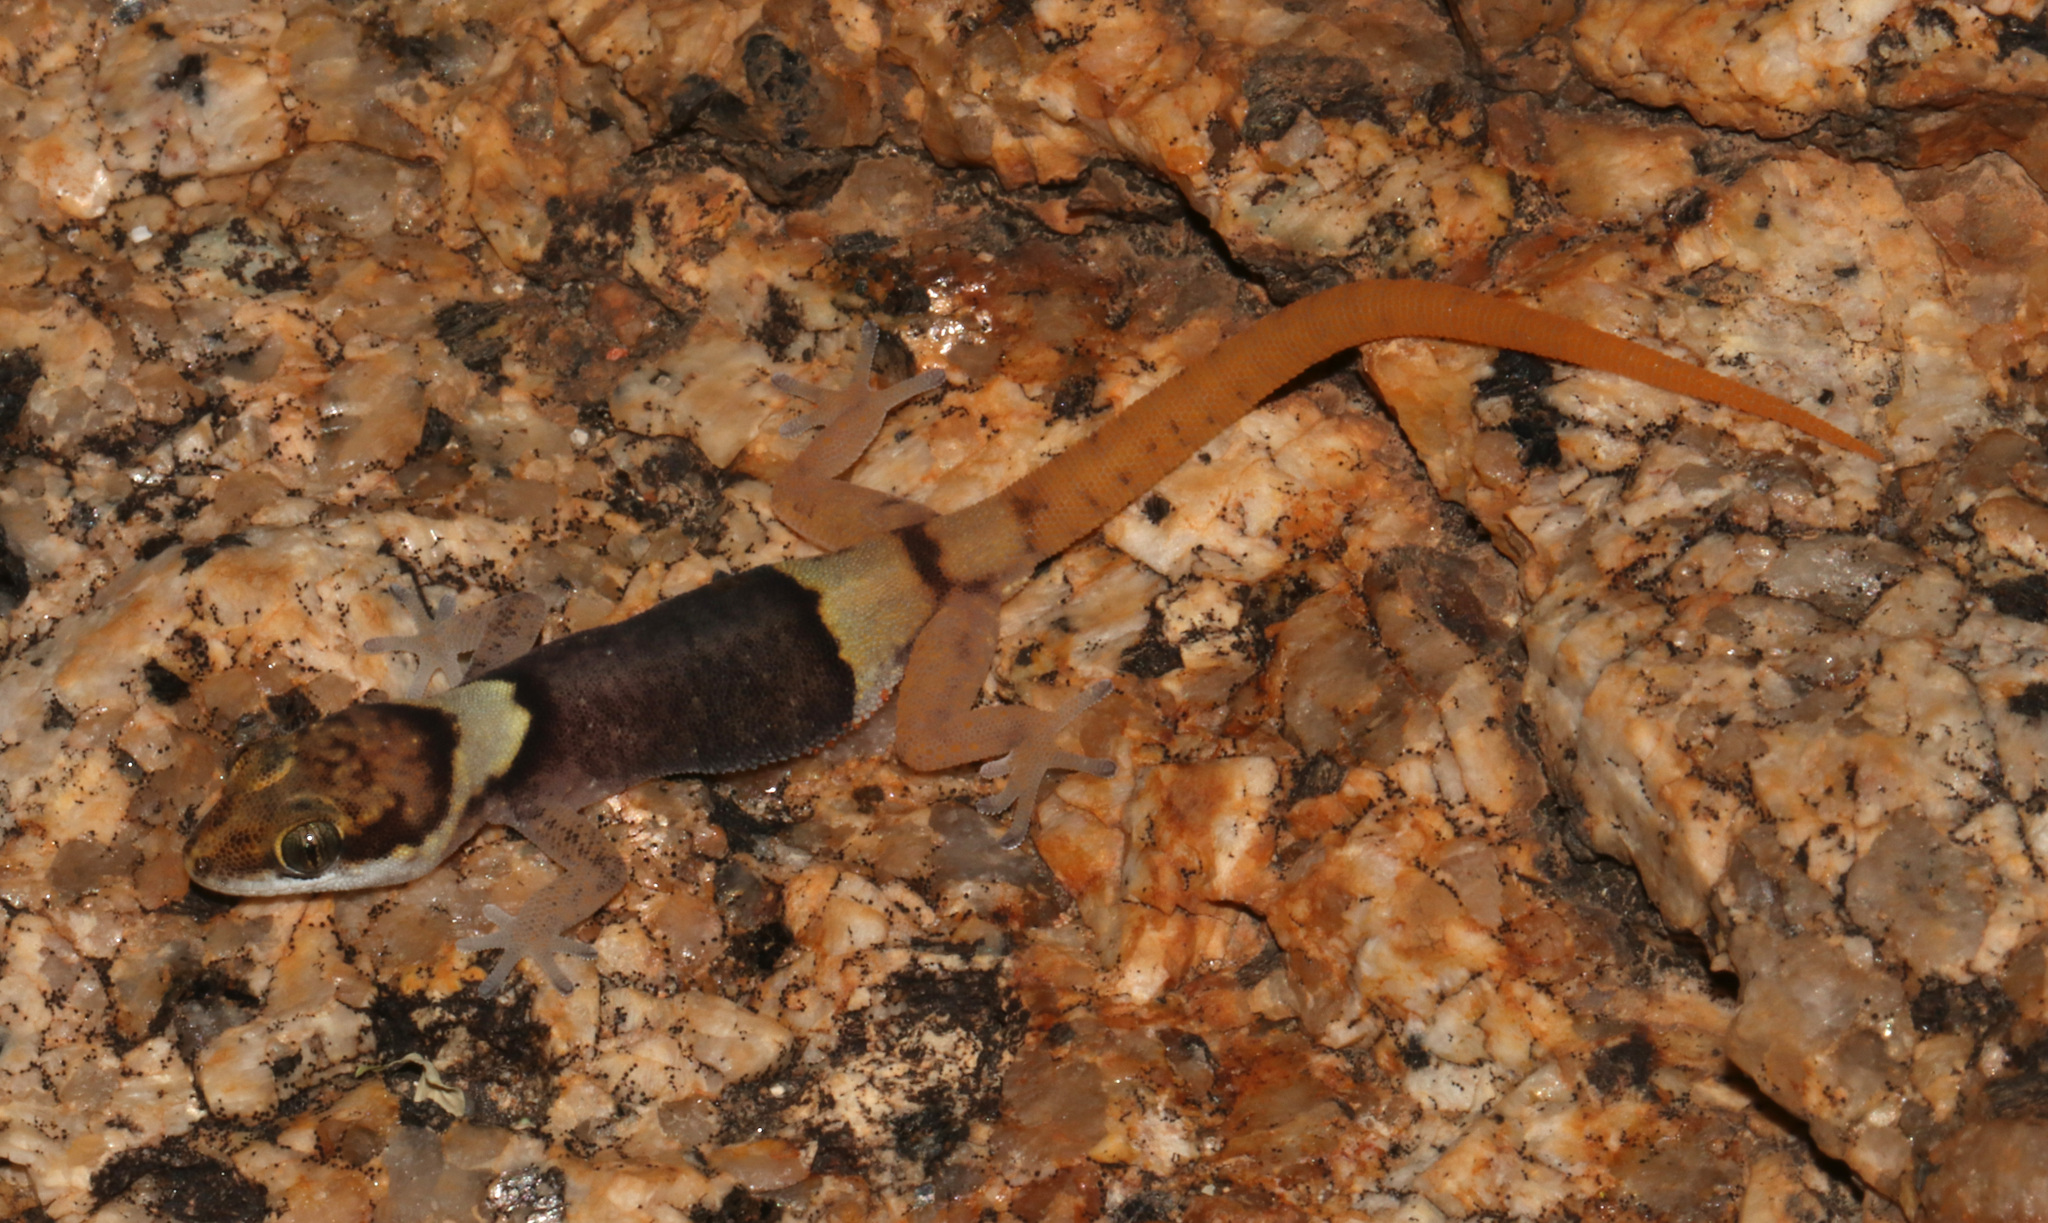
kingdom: Animalia
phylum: Chordata
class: Squamata
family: Gekkonidae
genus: Pachydactylus
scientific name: Pachydactylus bicolor
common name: Two-colored thick-toed gecko
